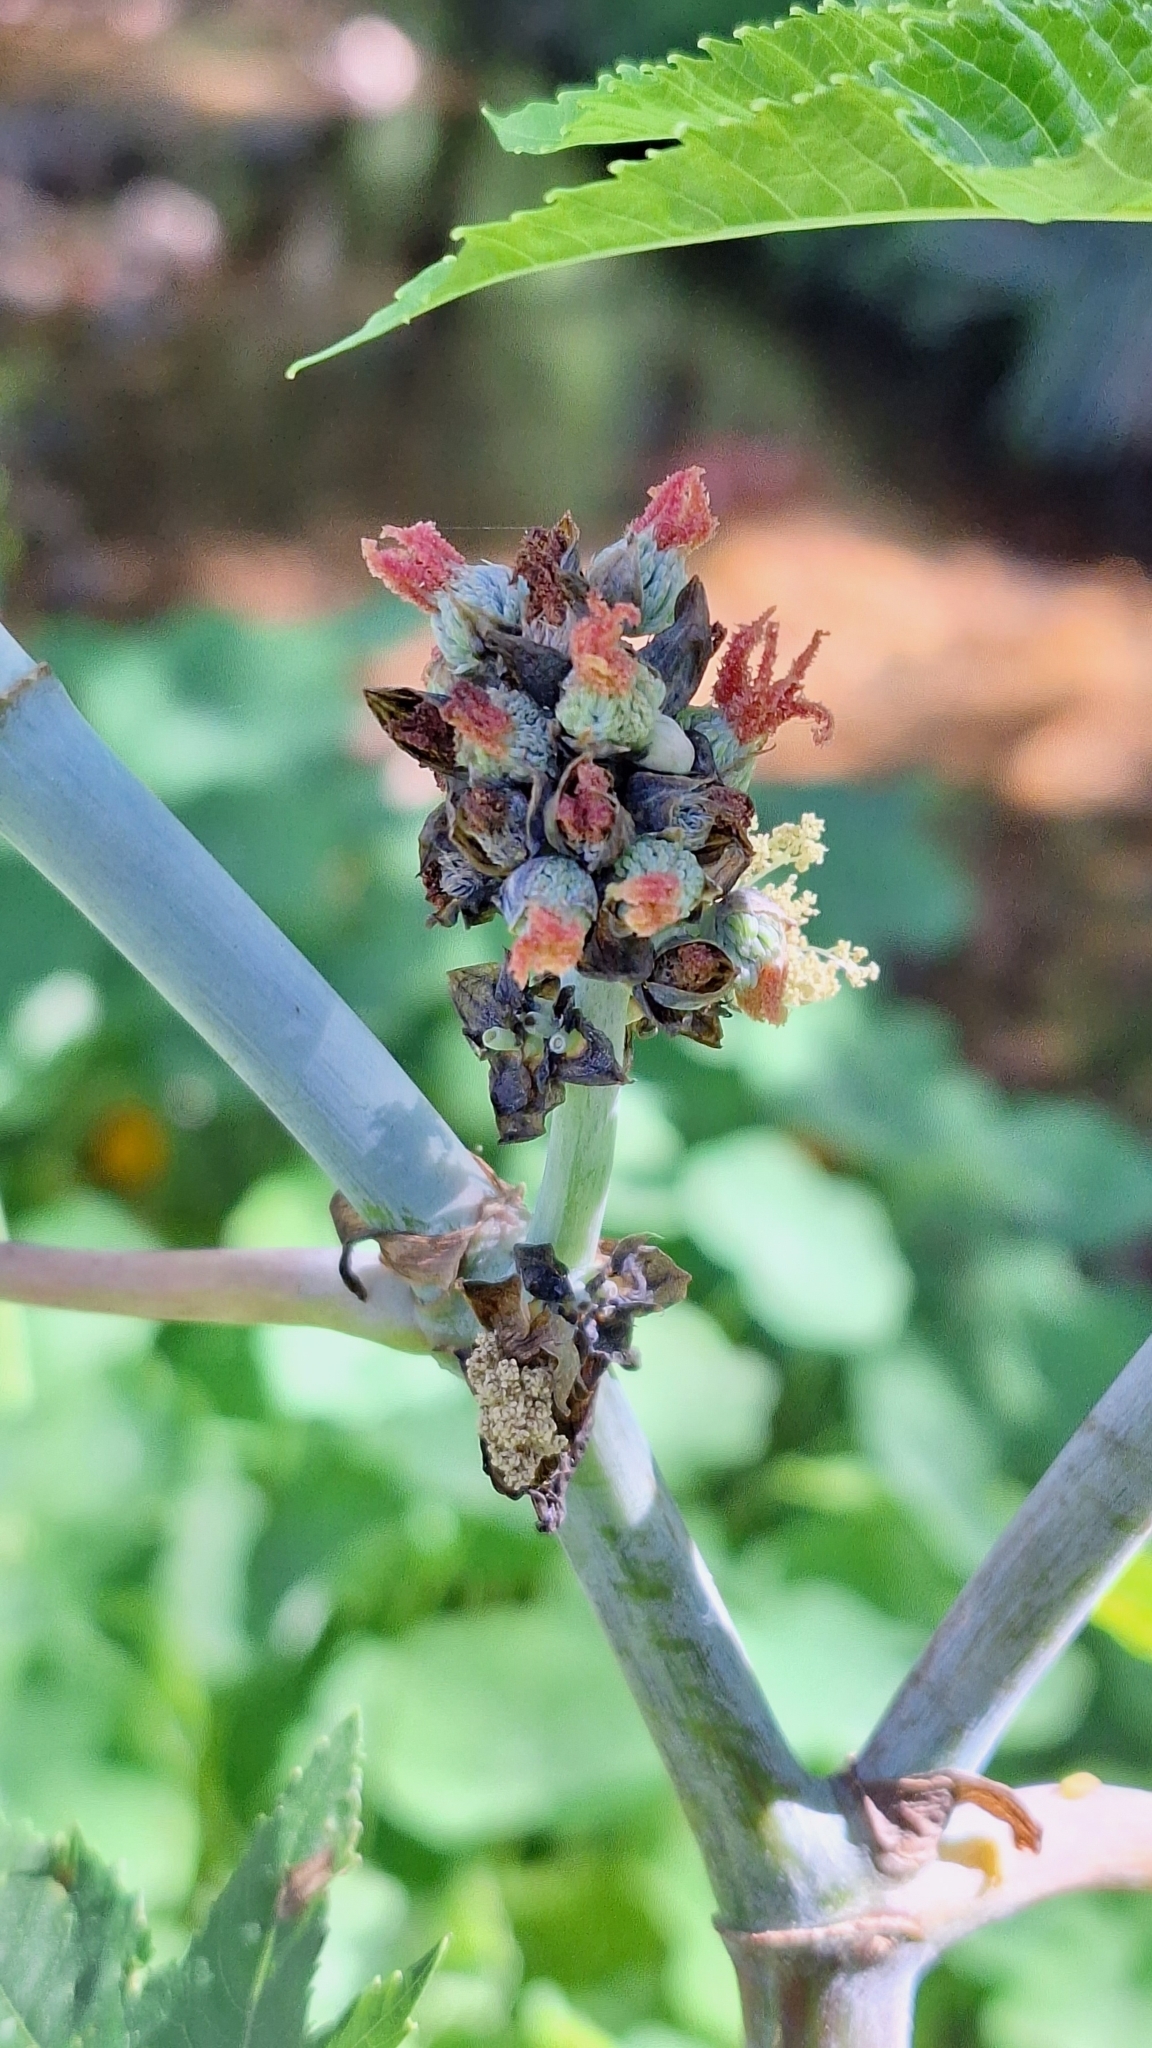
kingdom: Plantae
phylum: Tracheophyta
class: Magnoliopsida
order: Malpighiales
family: Euphorbiaceae
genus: Ricinus
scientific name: Ricinus communis
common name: Castor-oil-plant
